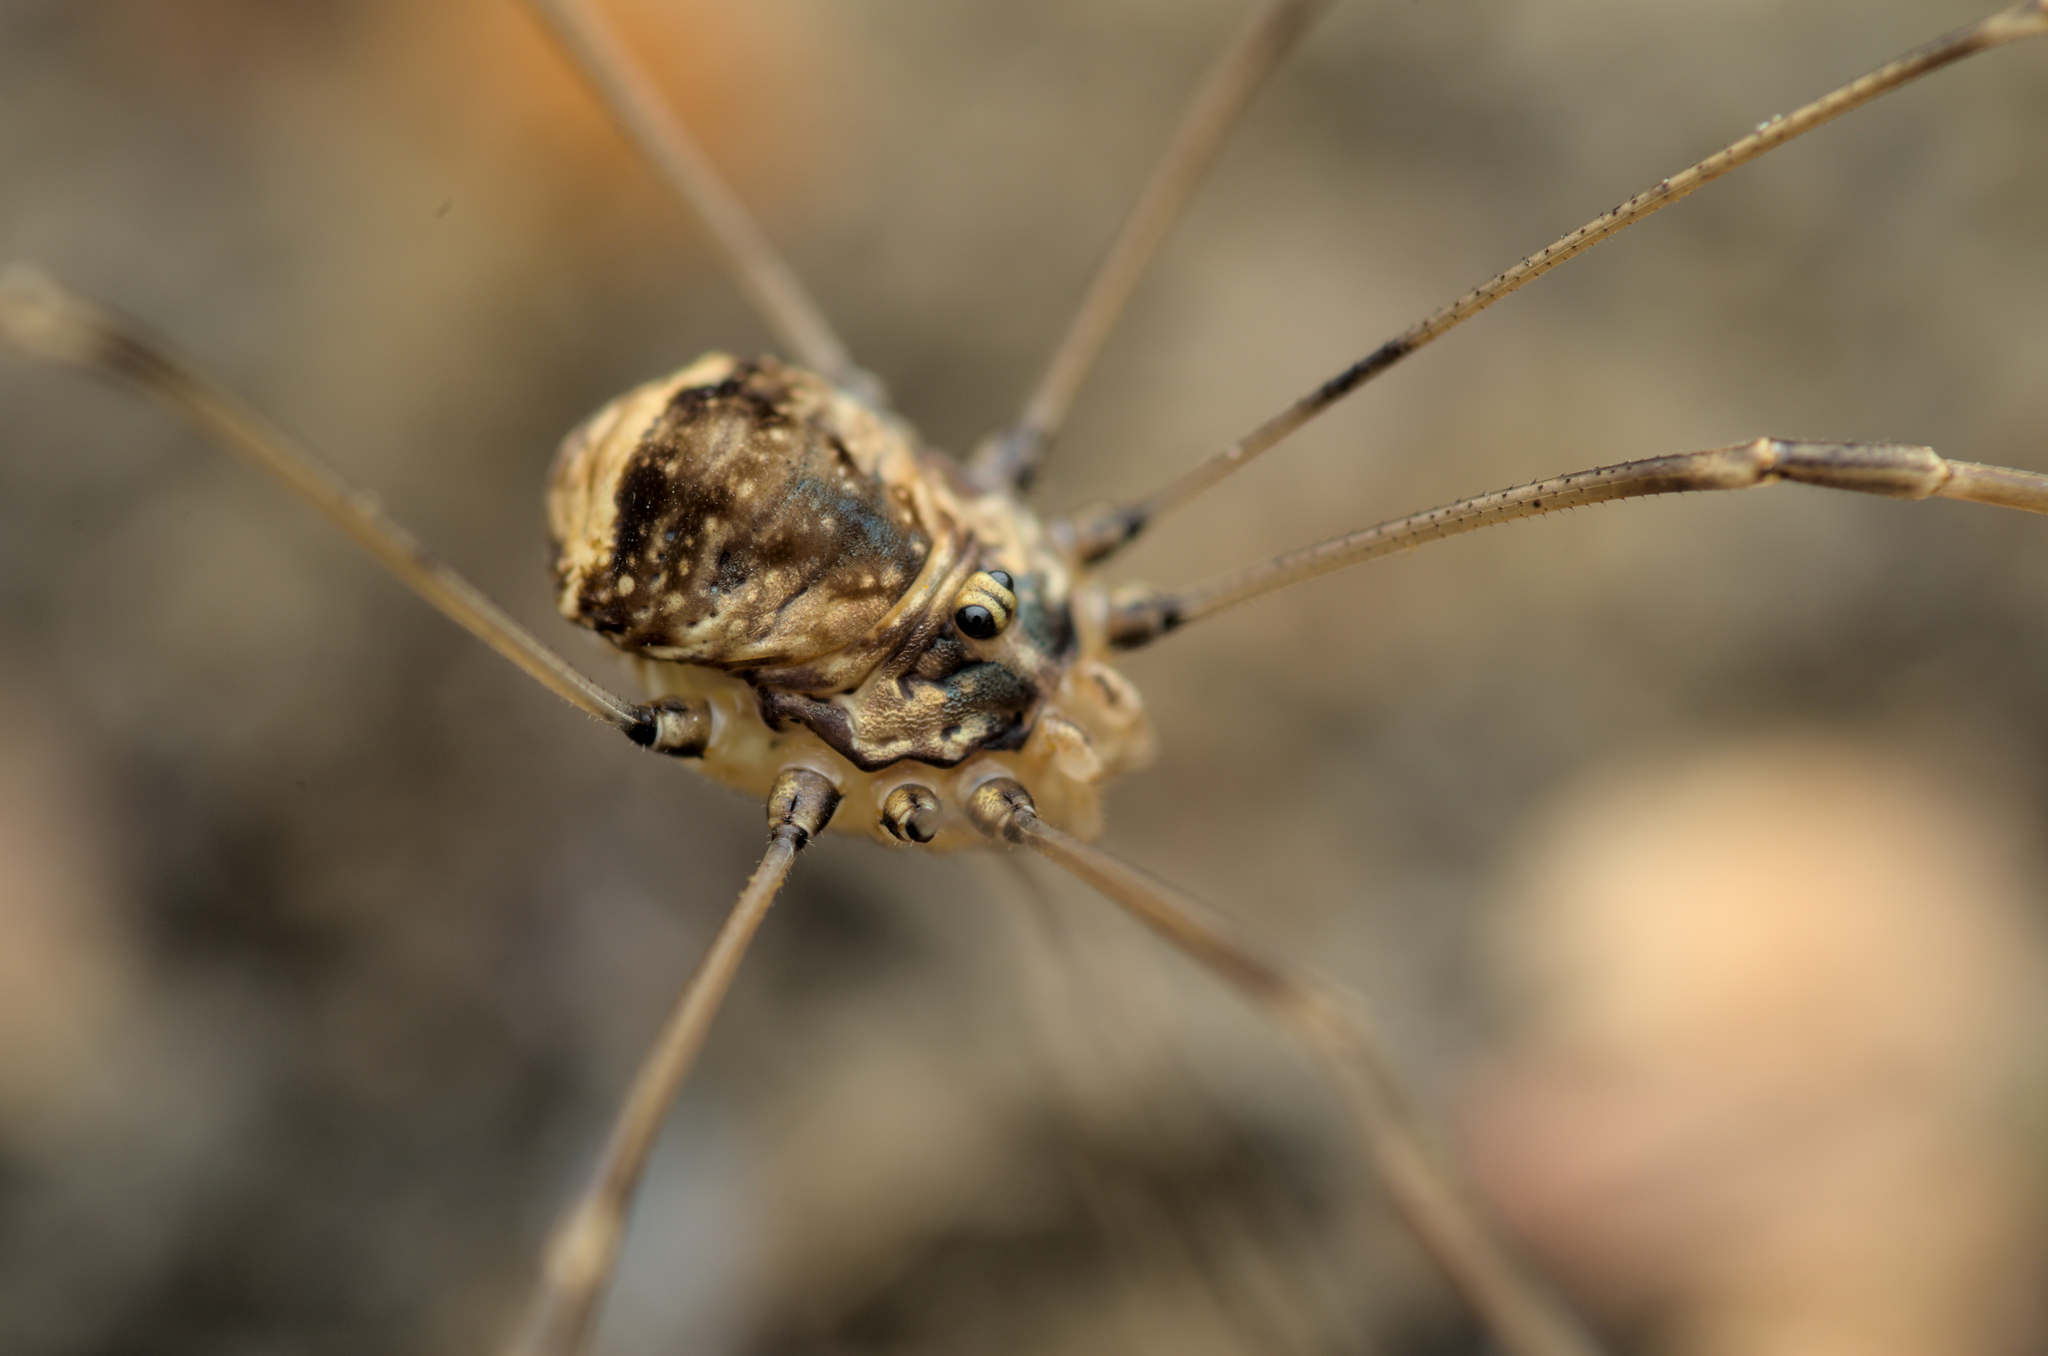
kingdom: Animalia
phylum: Arthropoda
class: Arachnida
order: Opiliones
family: Sclerosomatidae
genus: Leiobunum
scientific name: Leiobunum blackwalli
